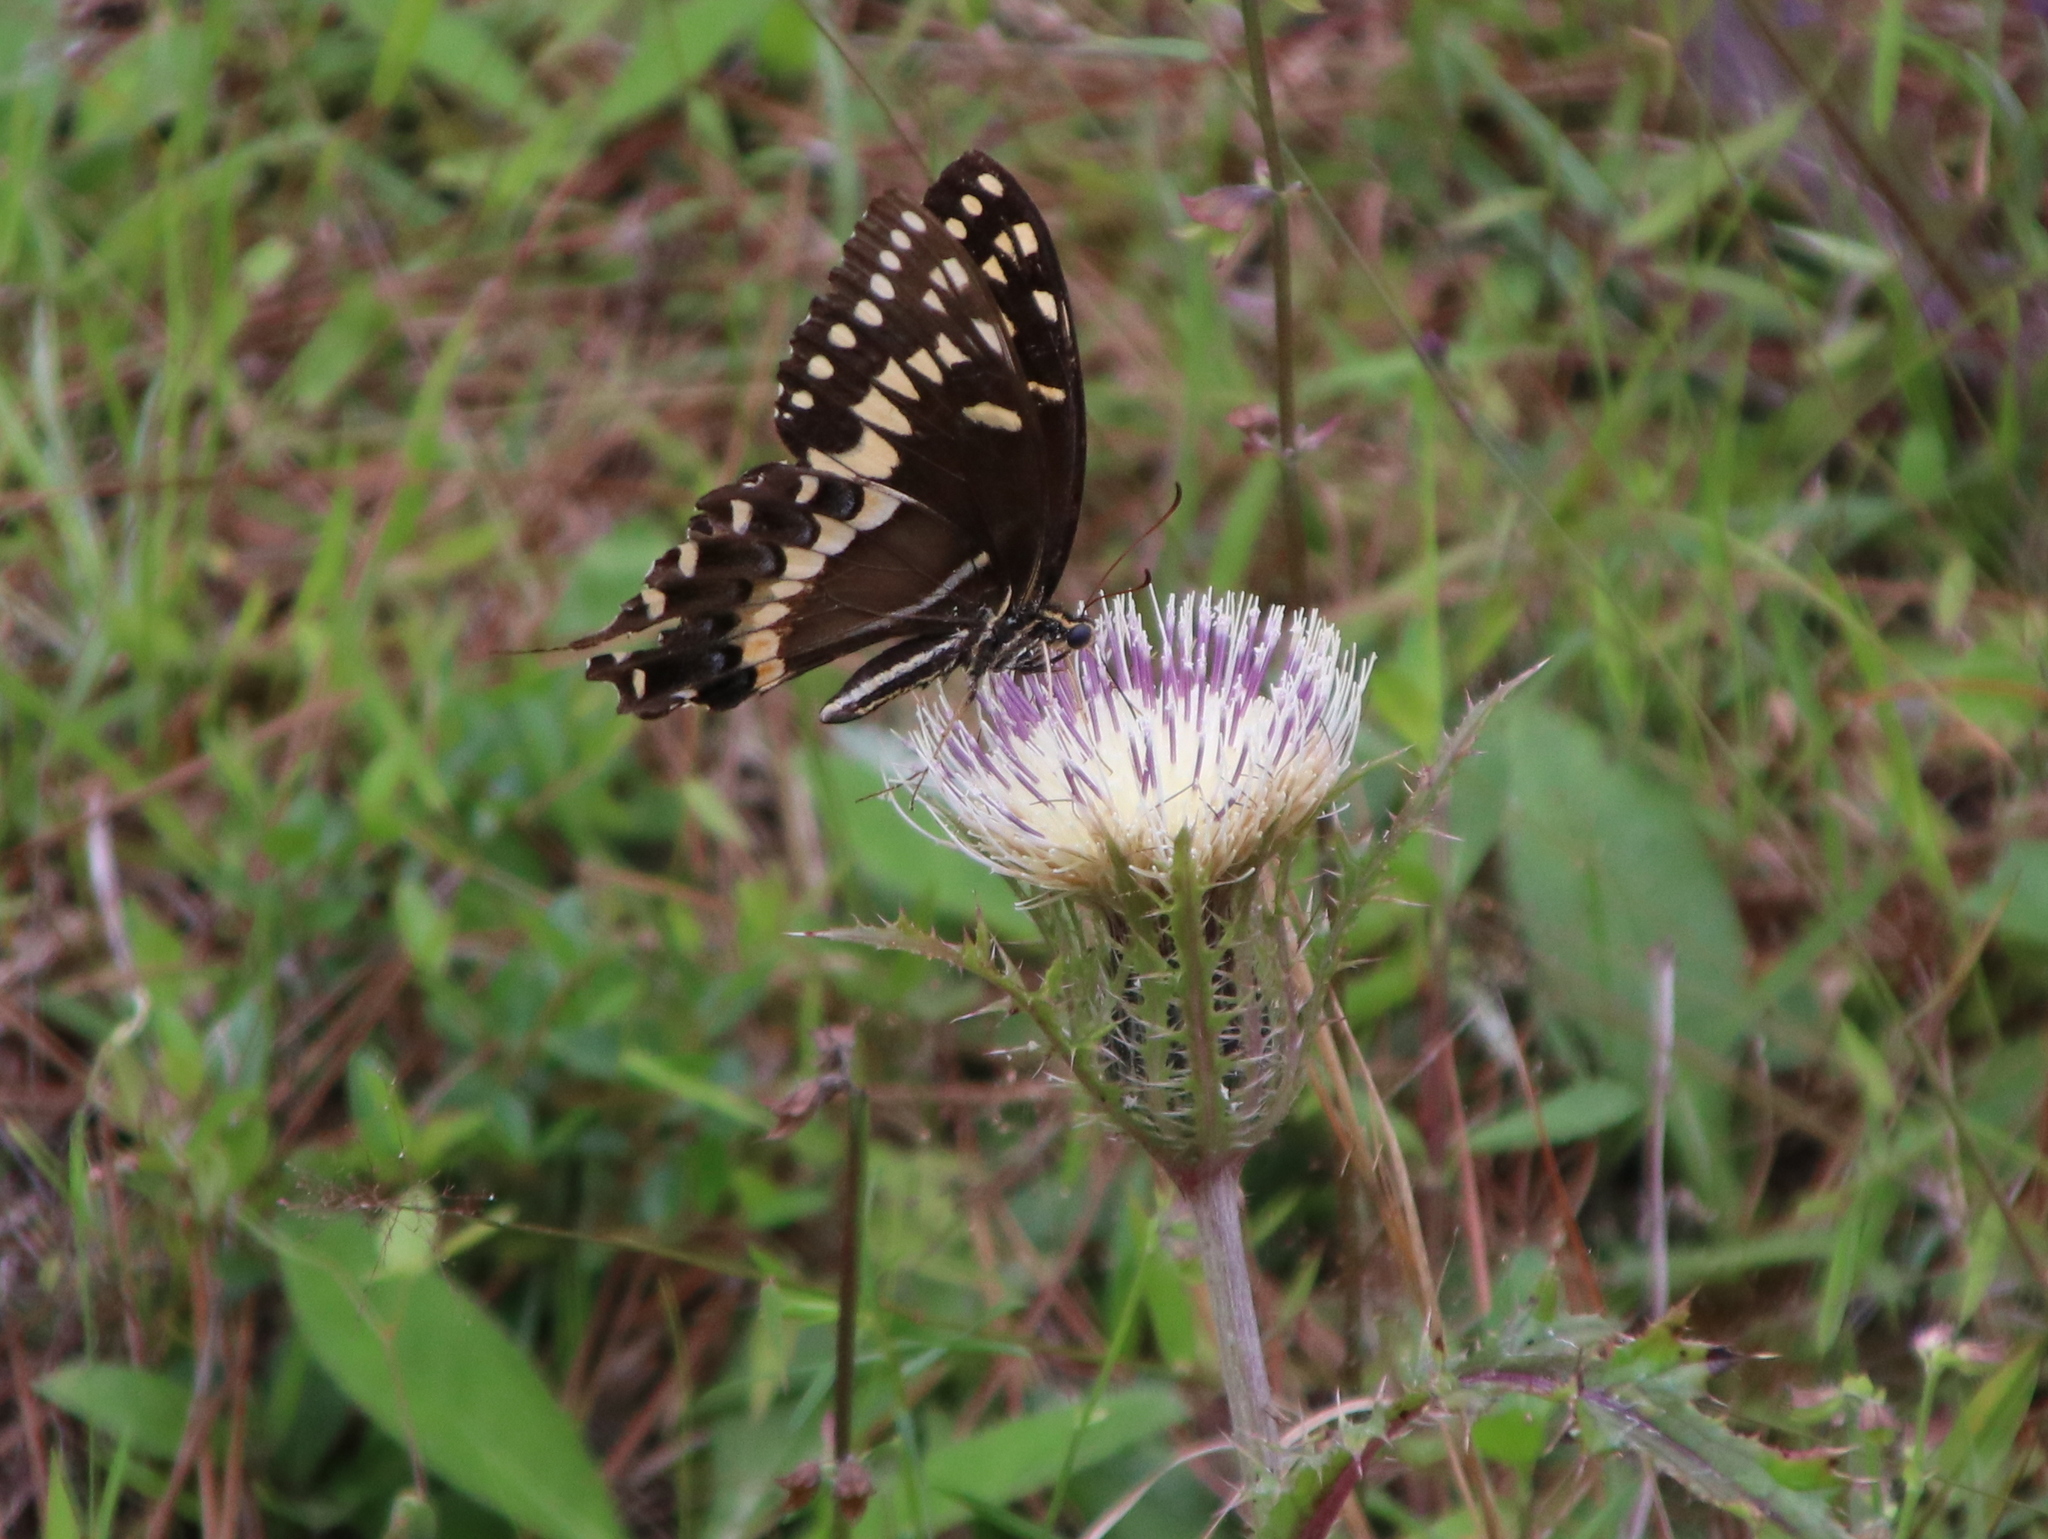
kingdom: Animalia
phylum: Arthropoda
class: Insecta
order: Lepidoptera
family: Papilionidae
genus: Papilio
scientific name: Papilio palamedes
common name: Palamedes swallowtail
